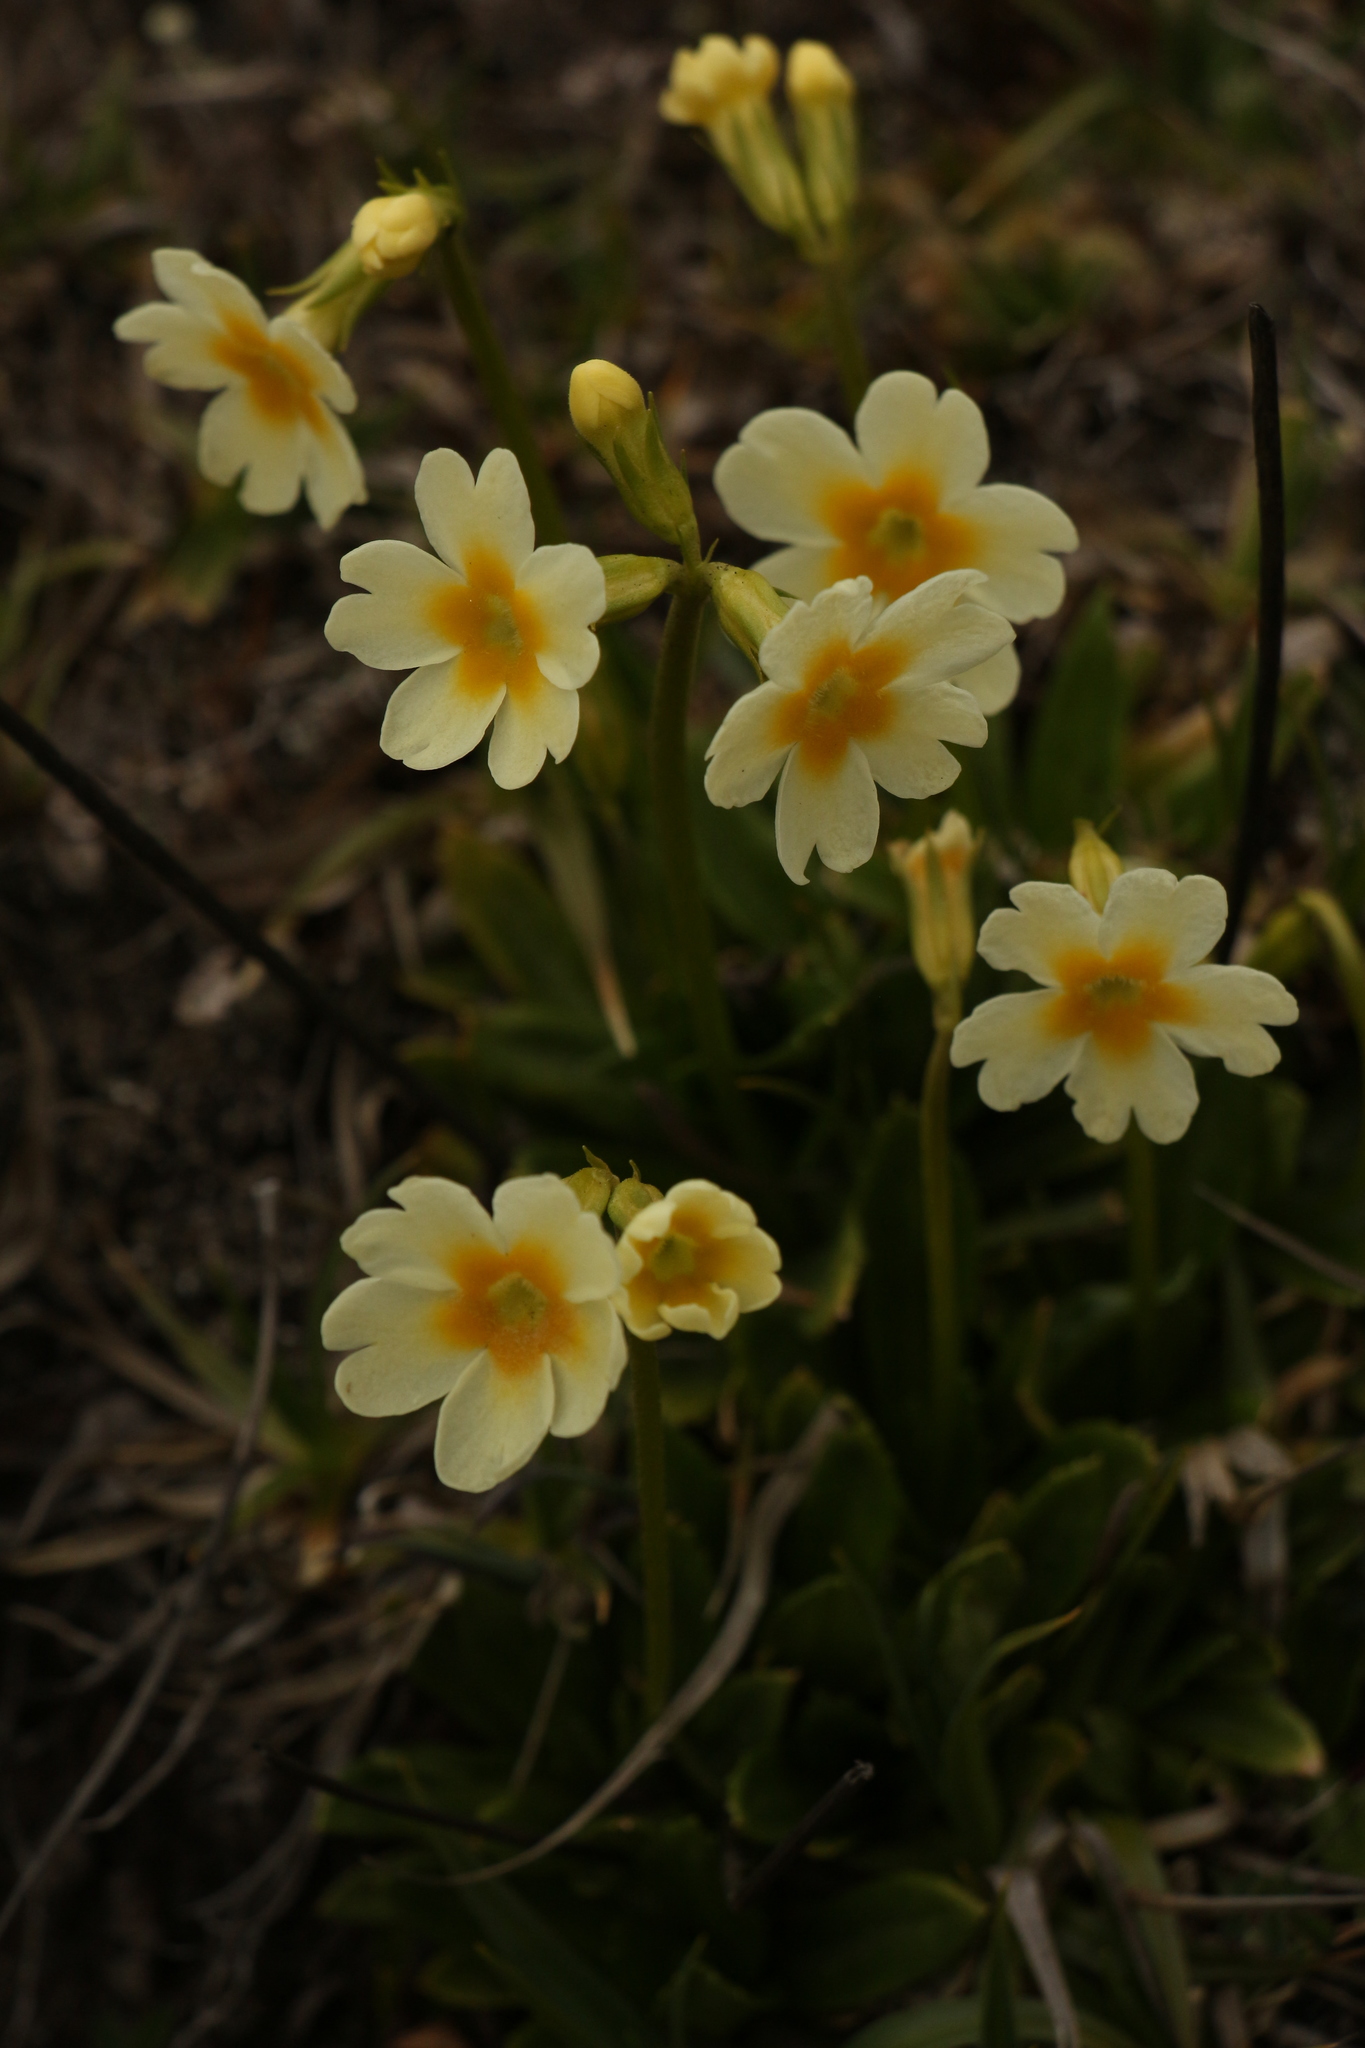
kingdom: Plantae
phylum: Tracheophyta
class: Magnoliopsida
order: Ericales
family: Primulaceae
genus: Primula
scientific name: Primula dickieana
